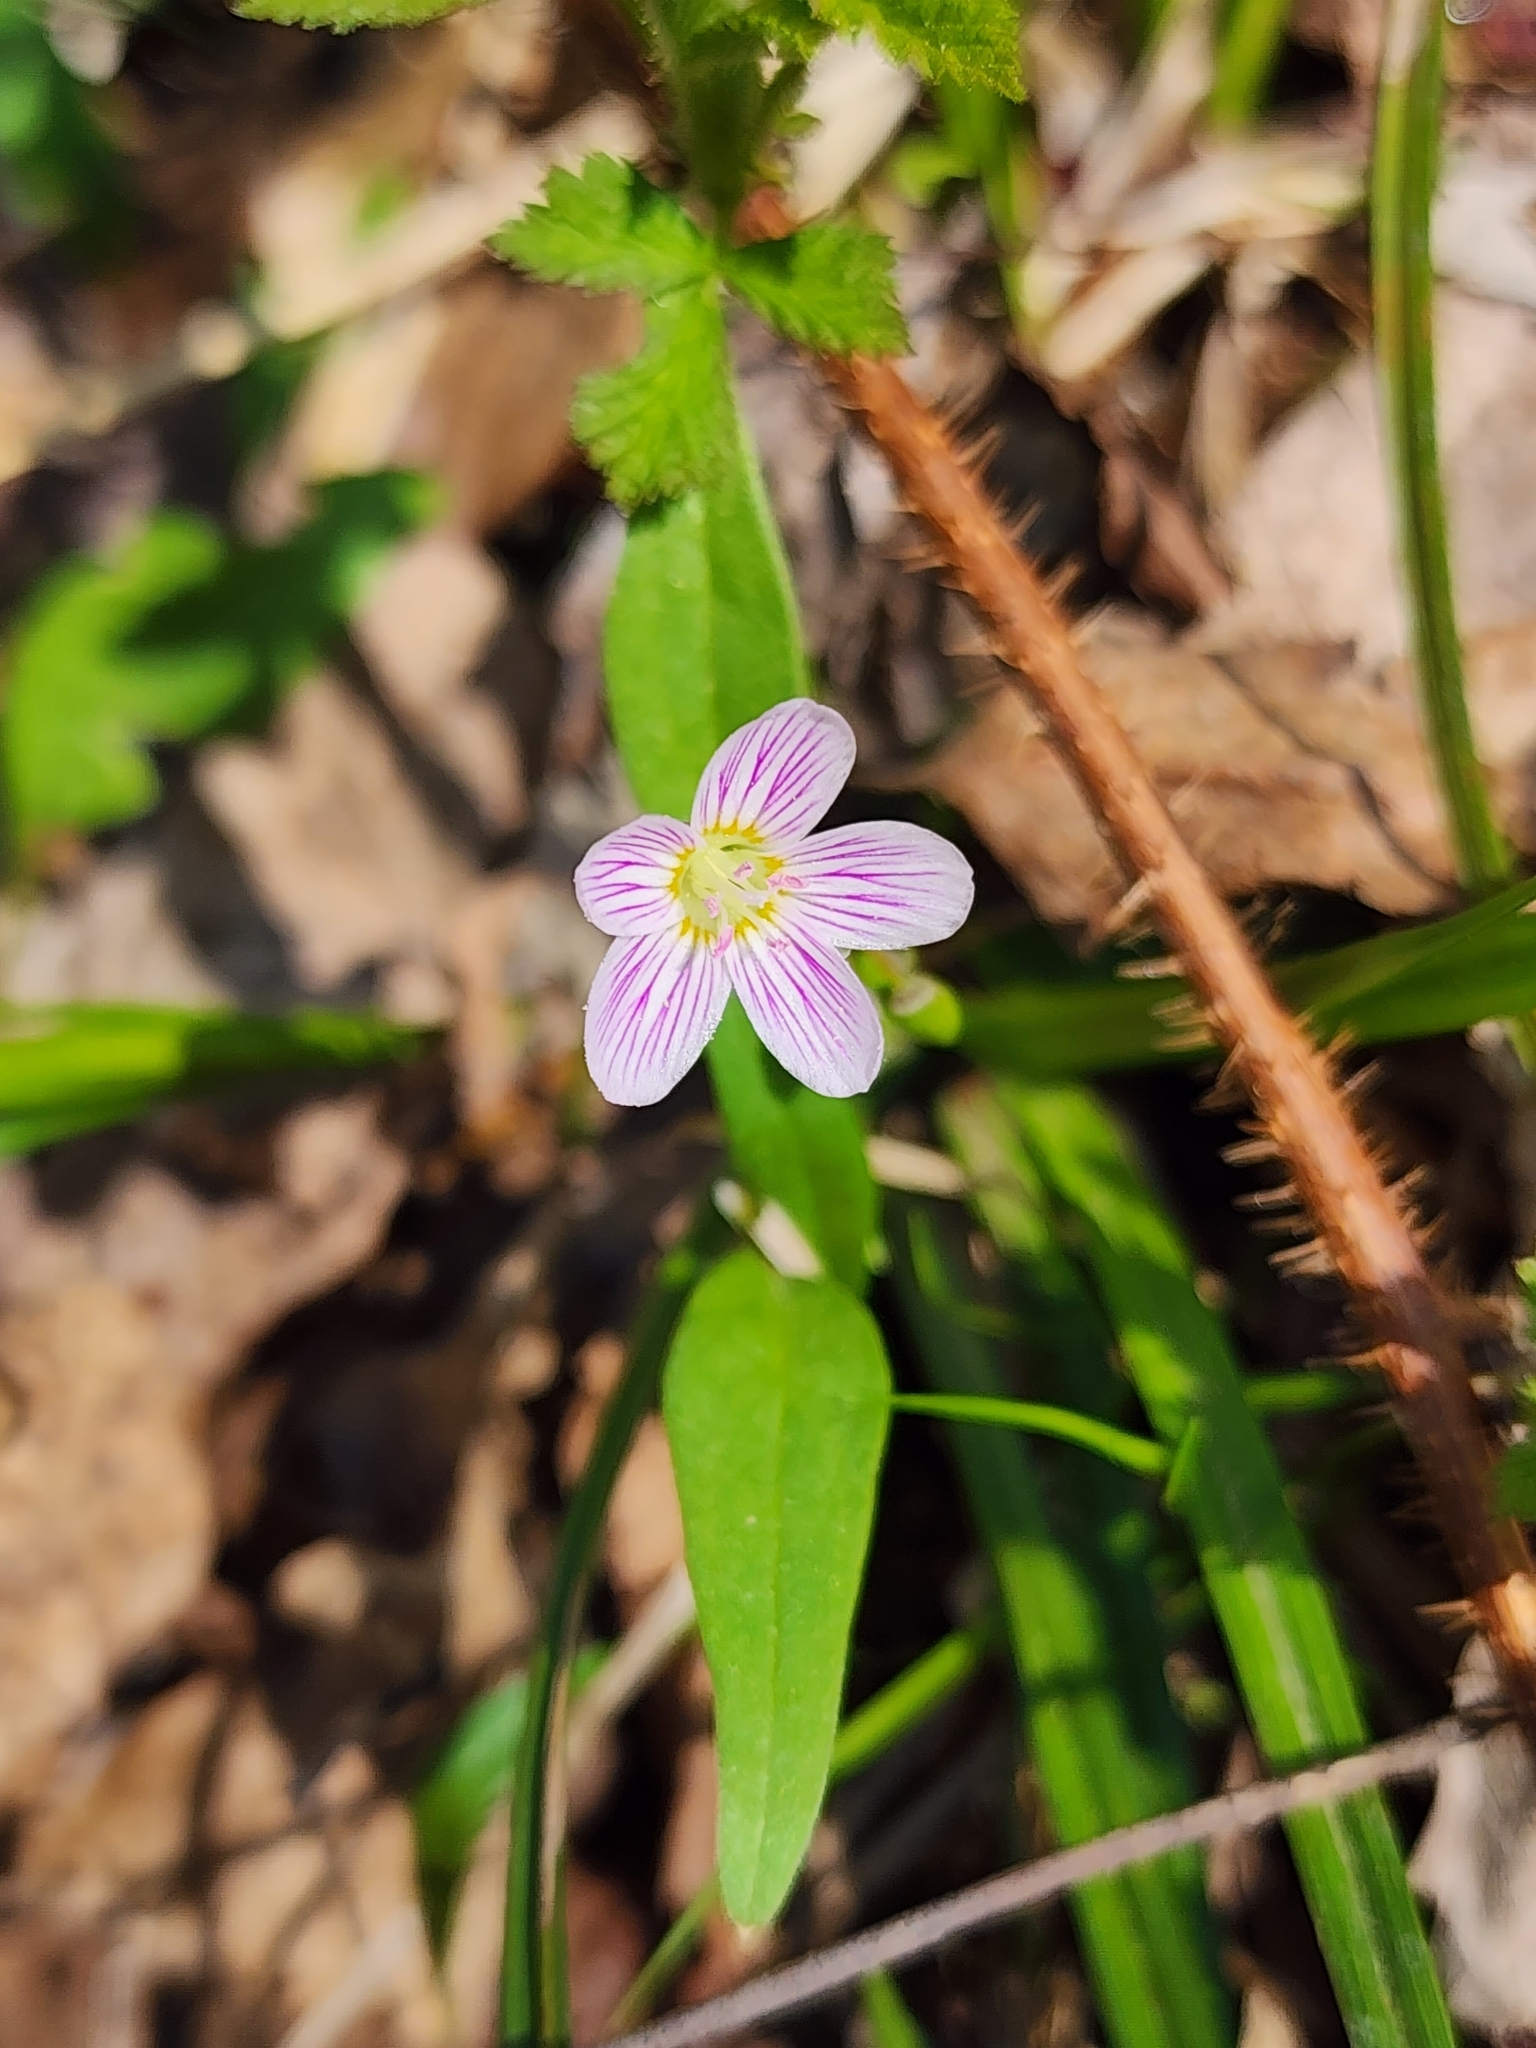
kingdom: Plantae
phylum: Tracheophyta
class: Magnoliopsida
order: Caryophyllales
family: Montiaceae
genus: Claytonia
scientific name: Claytonia caroliniana
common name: Carolina spring beauty
